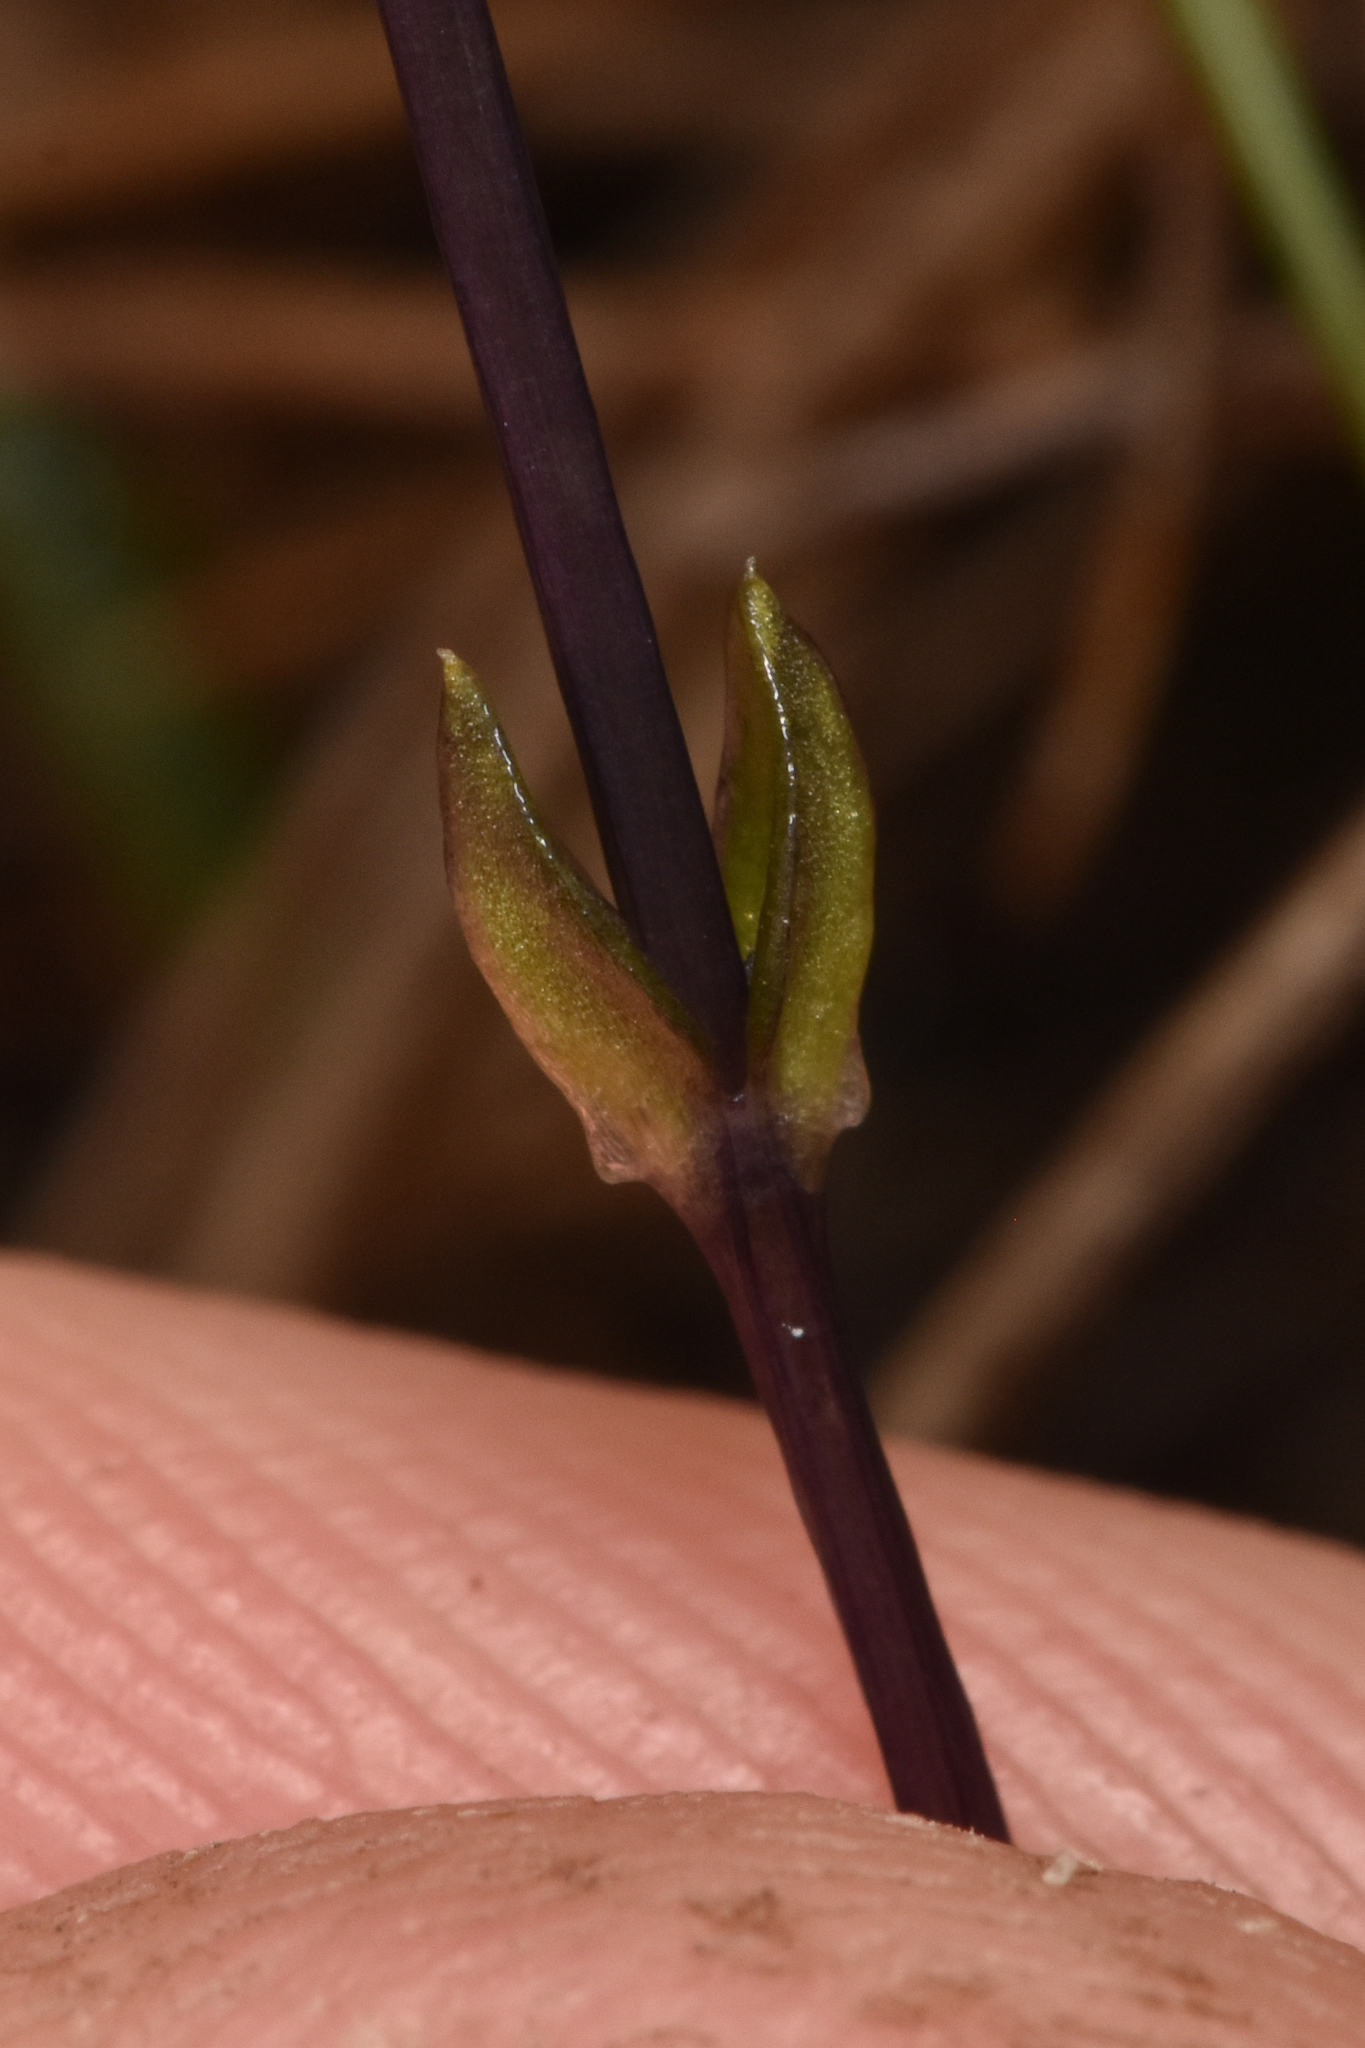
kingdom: Plantae
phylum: Tracheophyta
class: Magnoliopsida
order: Gentianales
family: Gentianaceae
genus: Gentiana
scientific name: Gentiana douglasiana
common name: Swamp gentian
